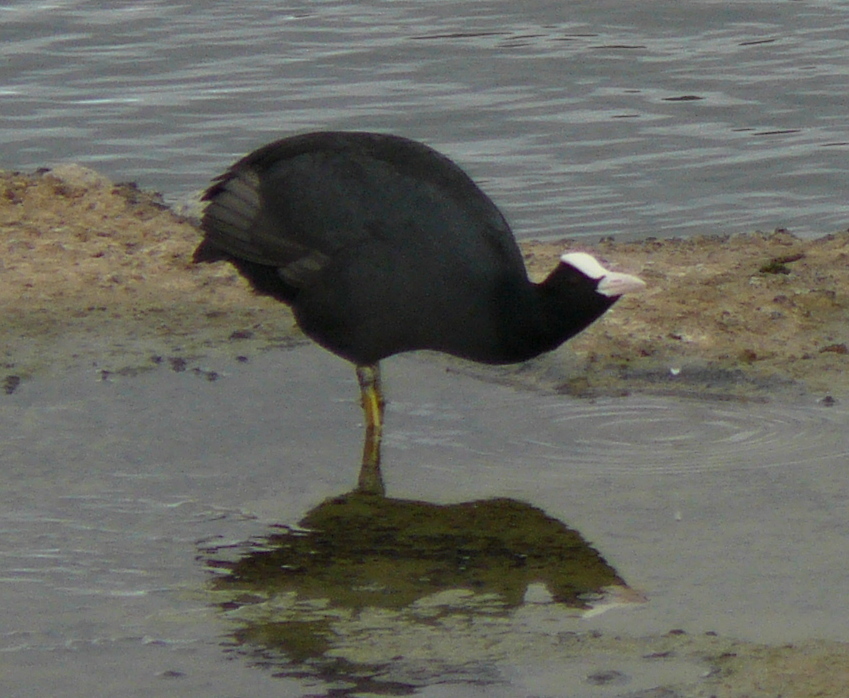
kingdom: Animalia
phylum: Chordata
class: Aves
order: Gruiformes
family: Rallidae
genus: Fulica
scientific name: Fulica atra
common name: Eurasian coot
